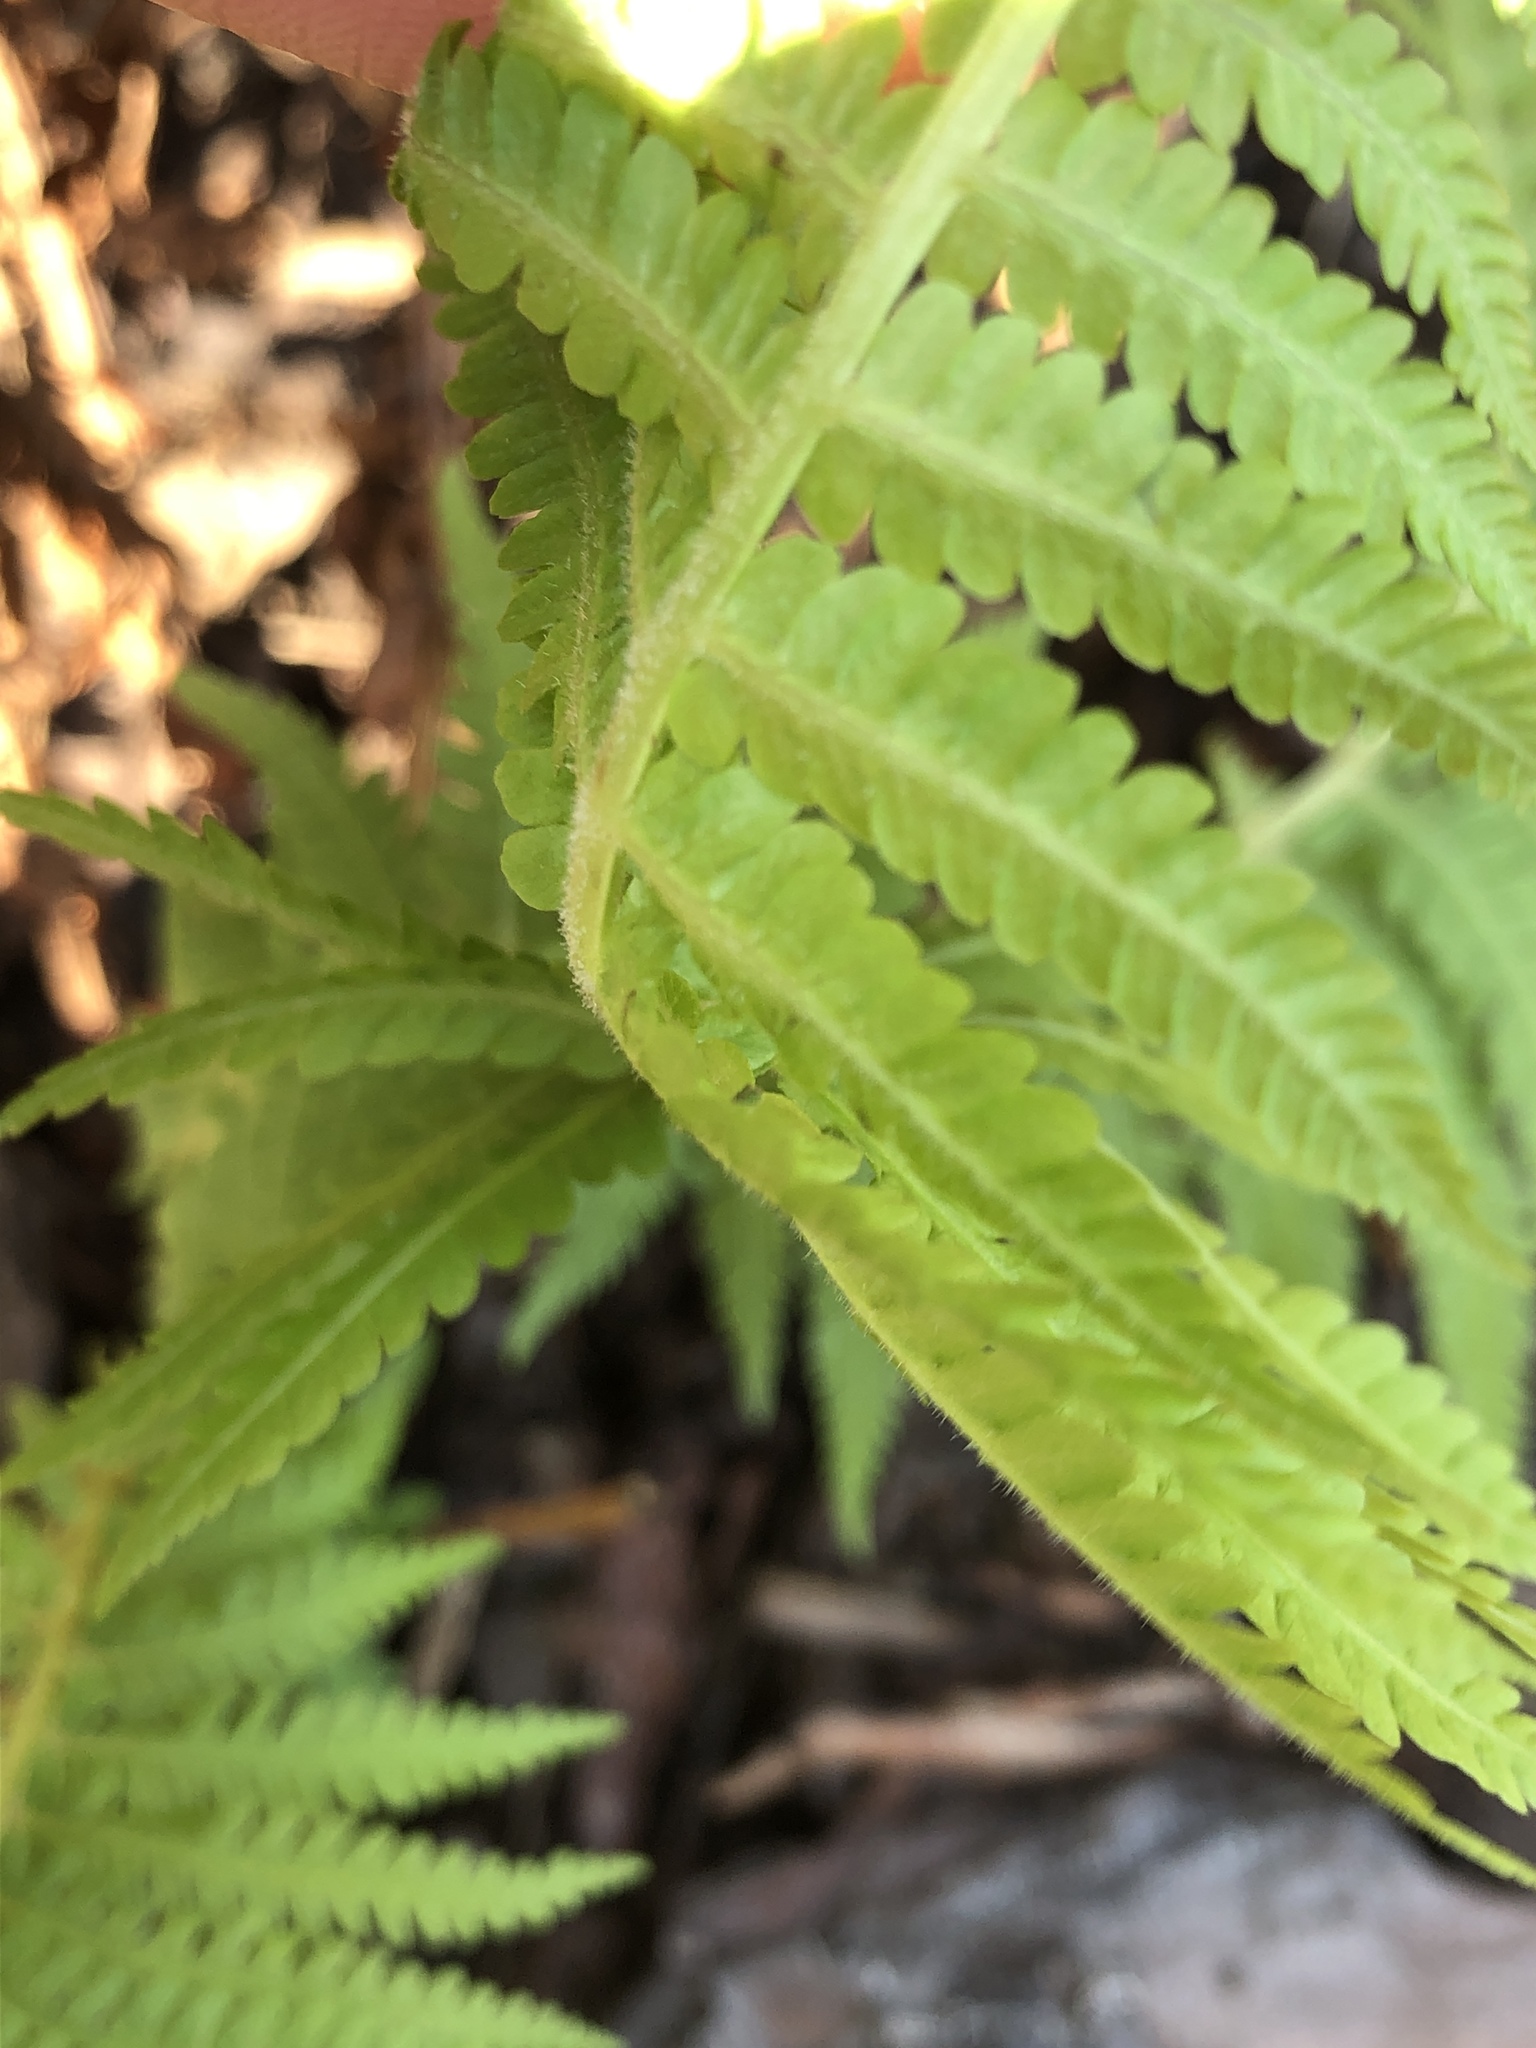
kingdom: Plantae
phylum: Tracheophyta
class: Polypodiopsida
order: Polypodiales
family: Dryopteridaceae
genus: Dryopteris
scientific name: Dryopteris filix-mas
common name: Male fern
